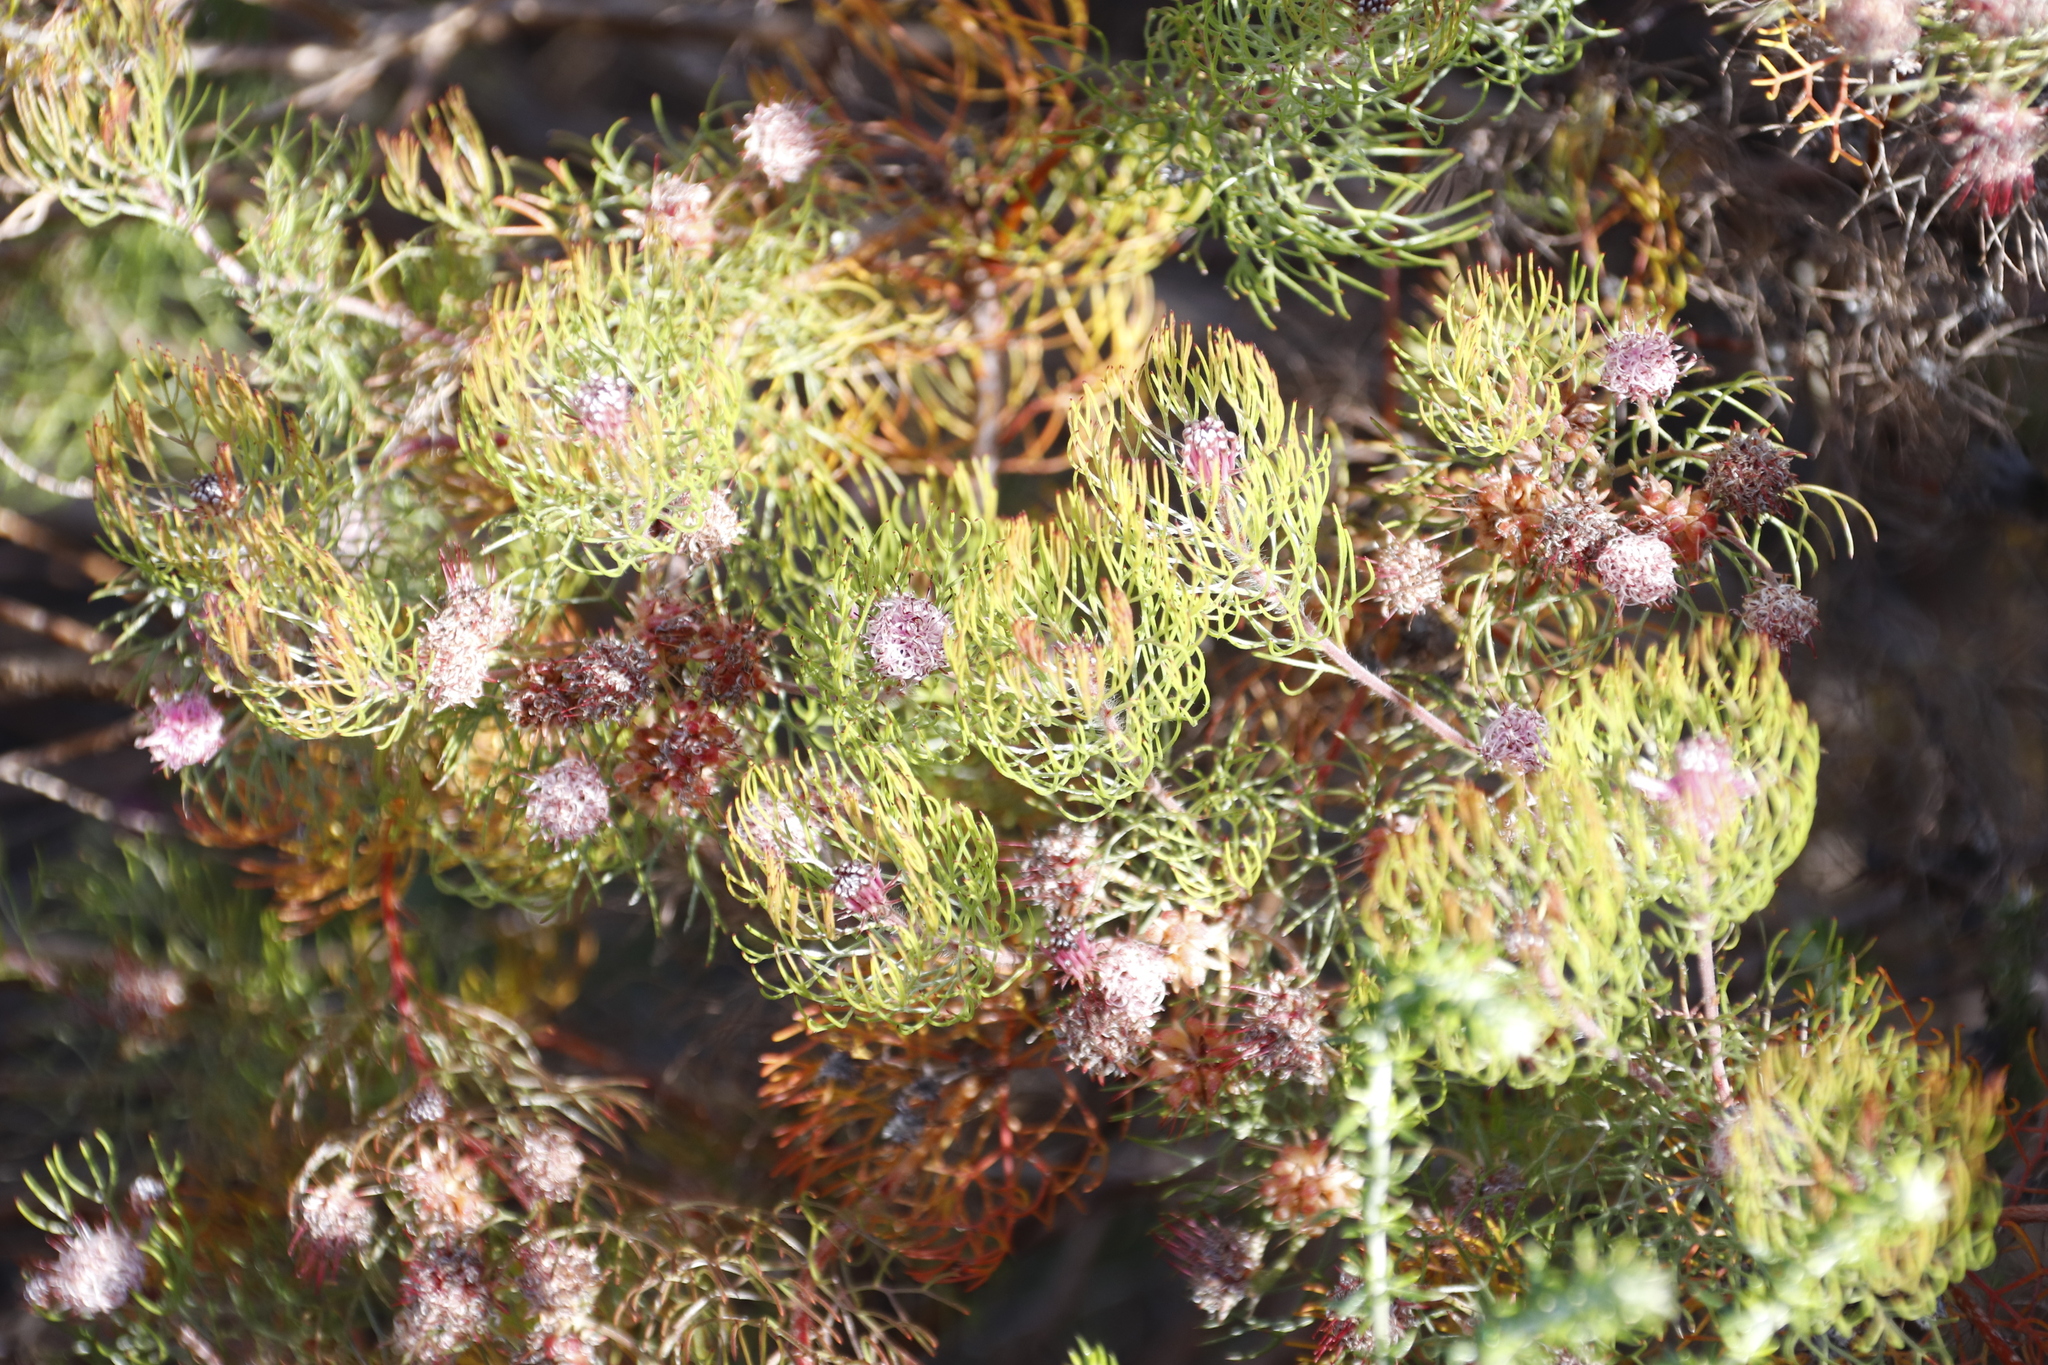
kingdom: Plantae
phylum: Tracheophyta
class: Magnoliopsida
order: Proteales
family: Proteaceae
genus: Serruria
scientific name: Serruria fasciflora
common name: Common pin spiderhead
